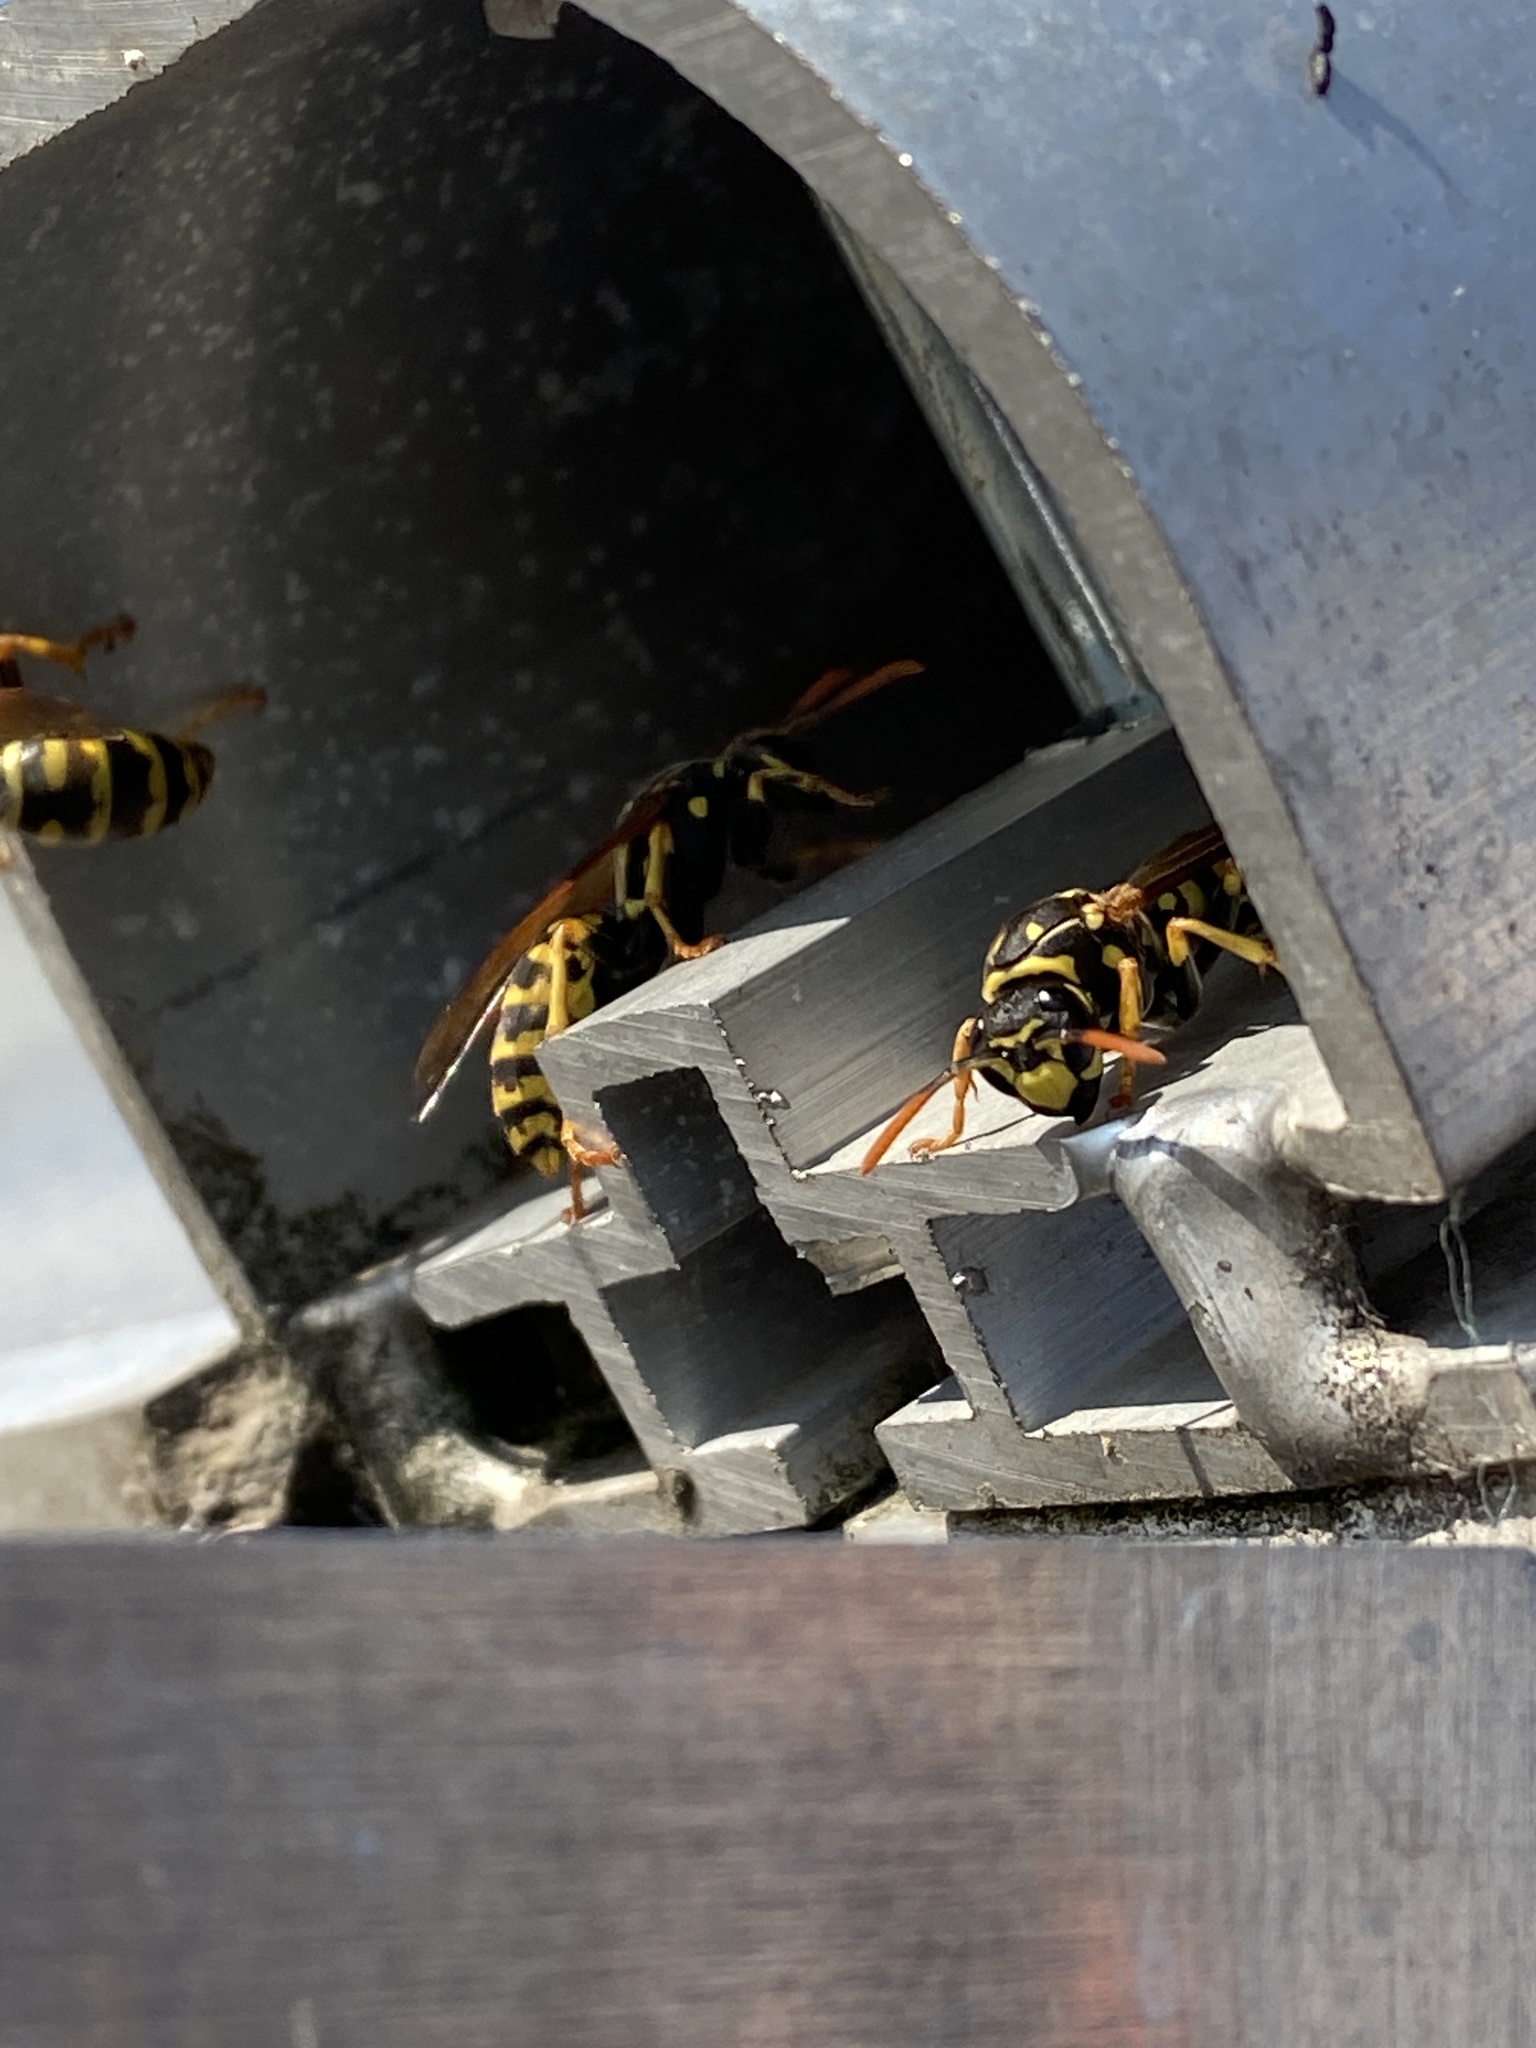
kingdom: Animalia
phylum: Arthropoda
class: Insecta
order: Hymenoptera
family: Eumenidae
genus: Polistes
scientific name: Polistes dominula
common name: Paper wasp
